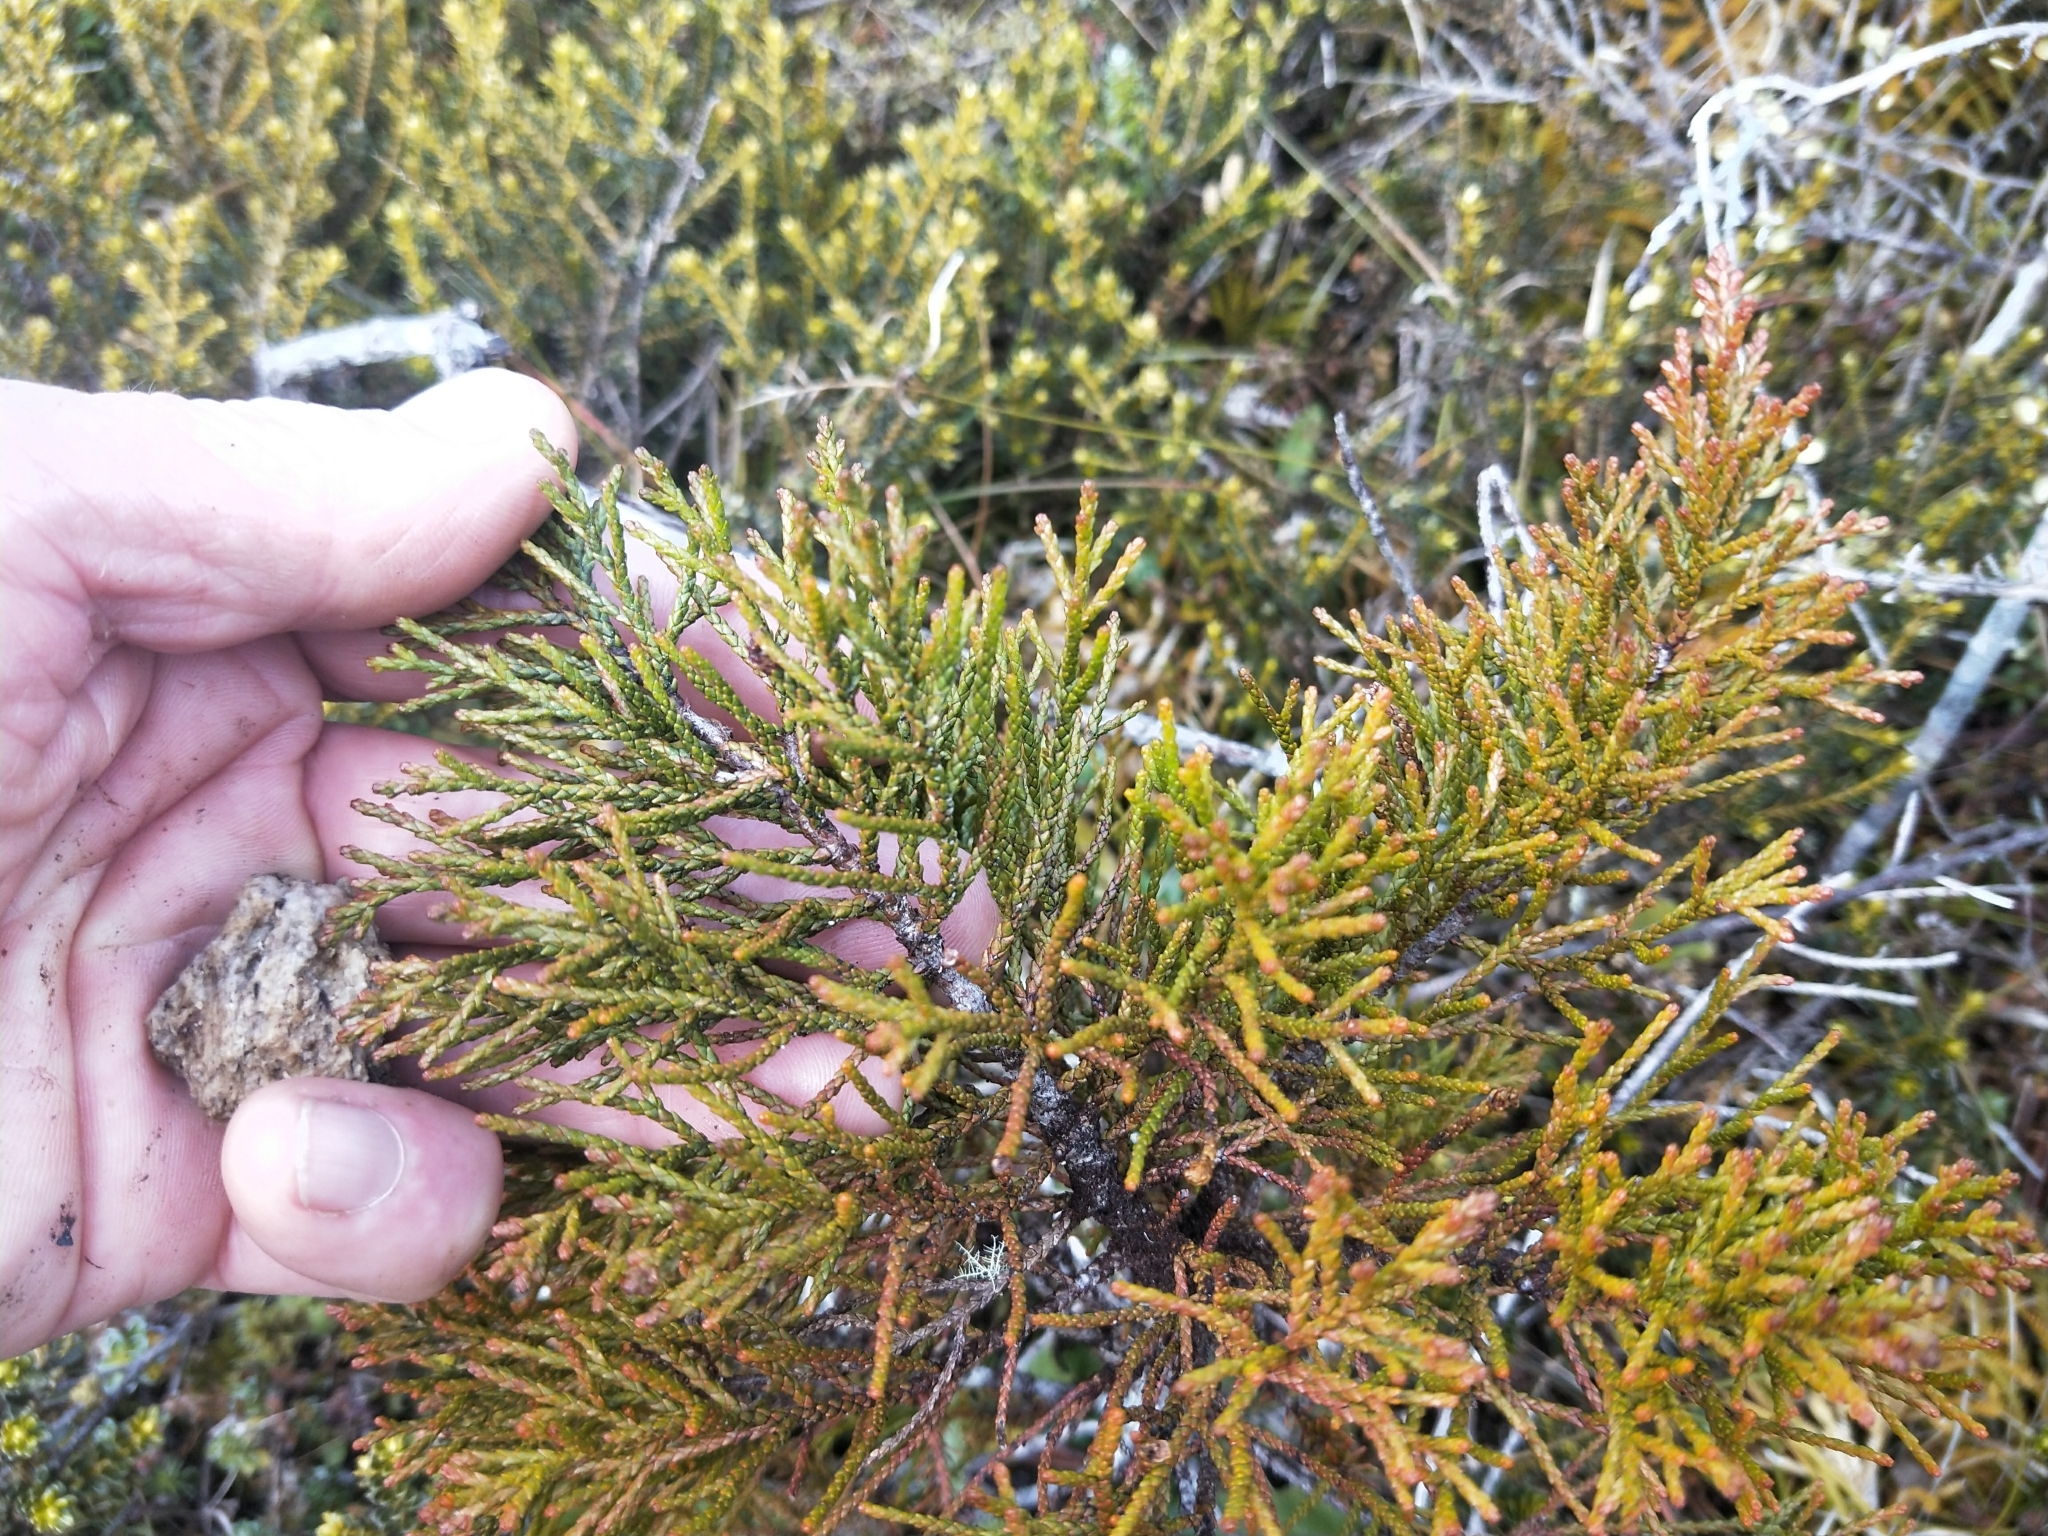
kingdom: Plantae
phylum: Tracheophyta
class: Pinopsida
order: Pinales
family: Podocarpaceae
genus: Halocarpus
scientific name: Halocarpus bidwillii
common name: Bog pine
